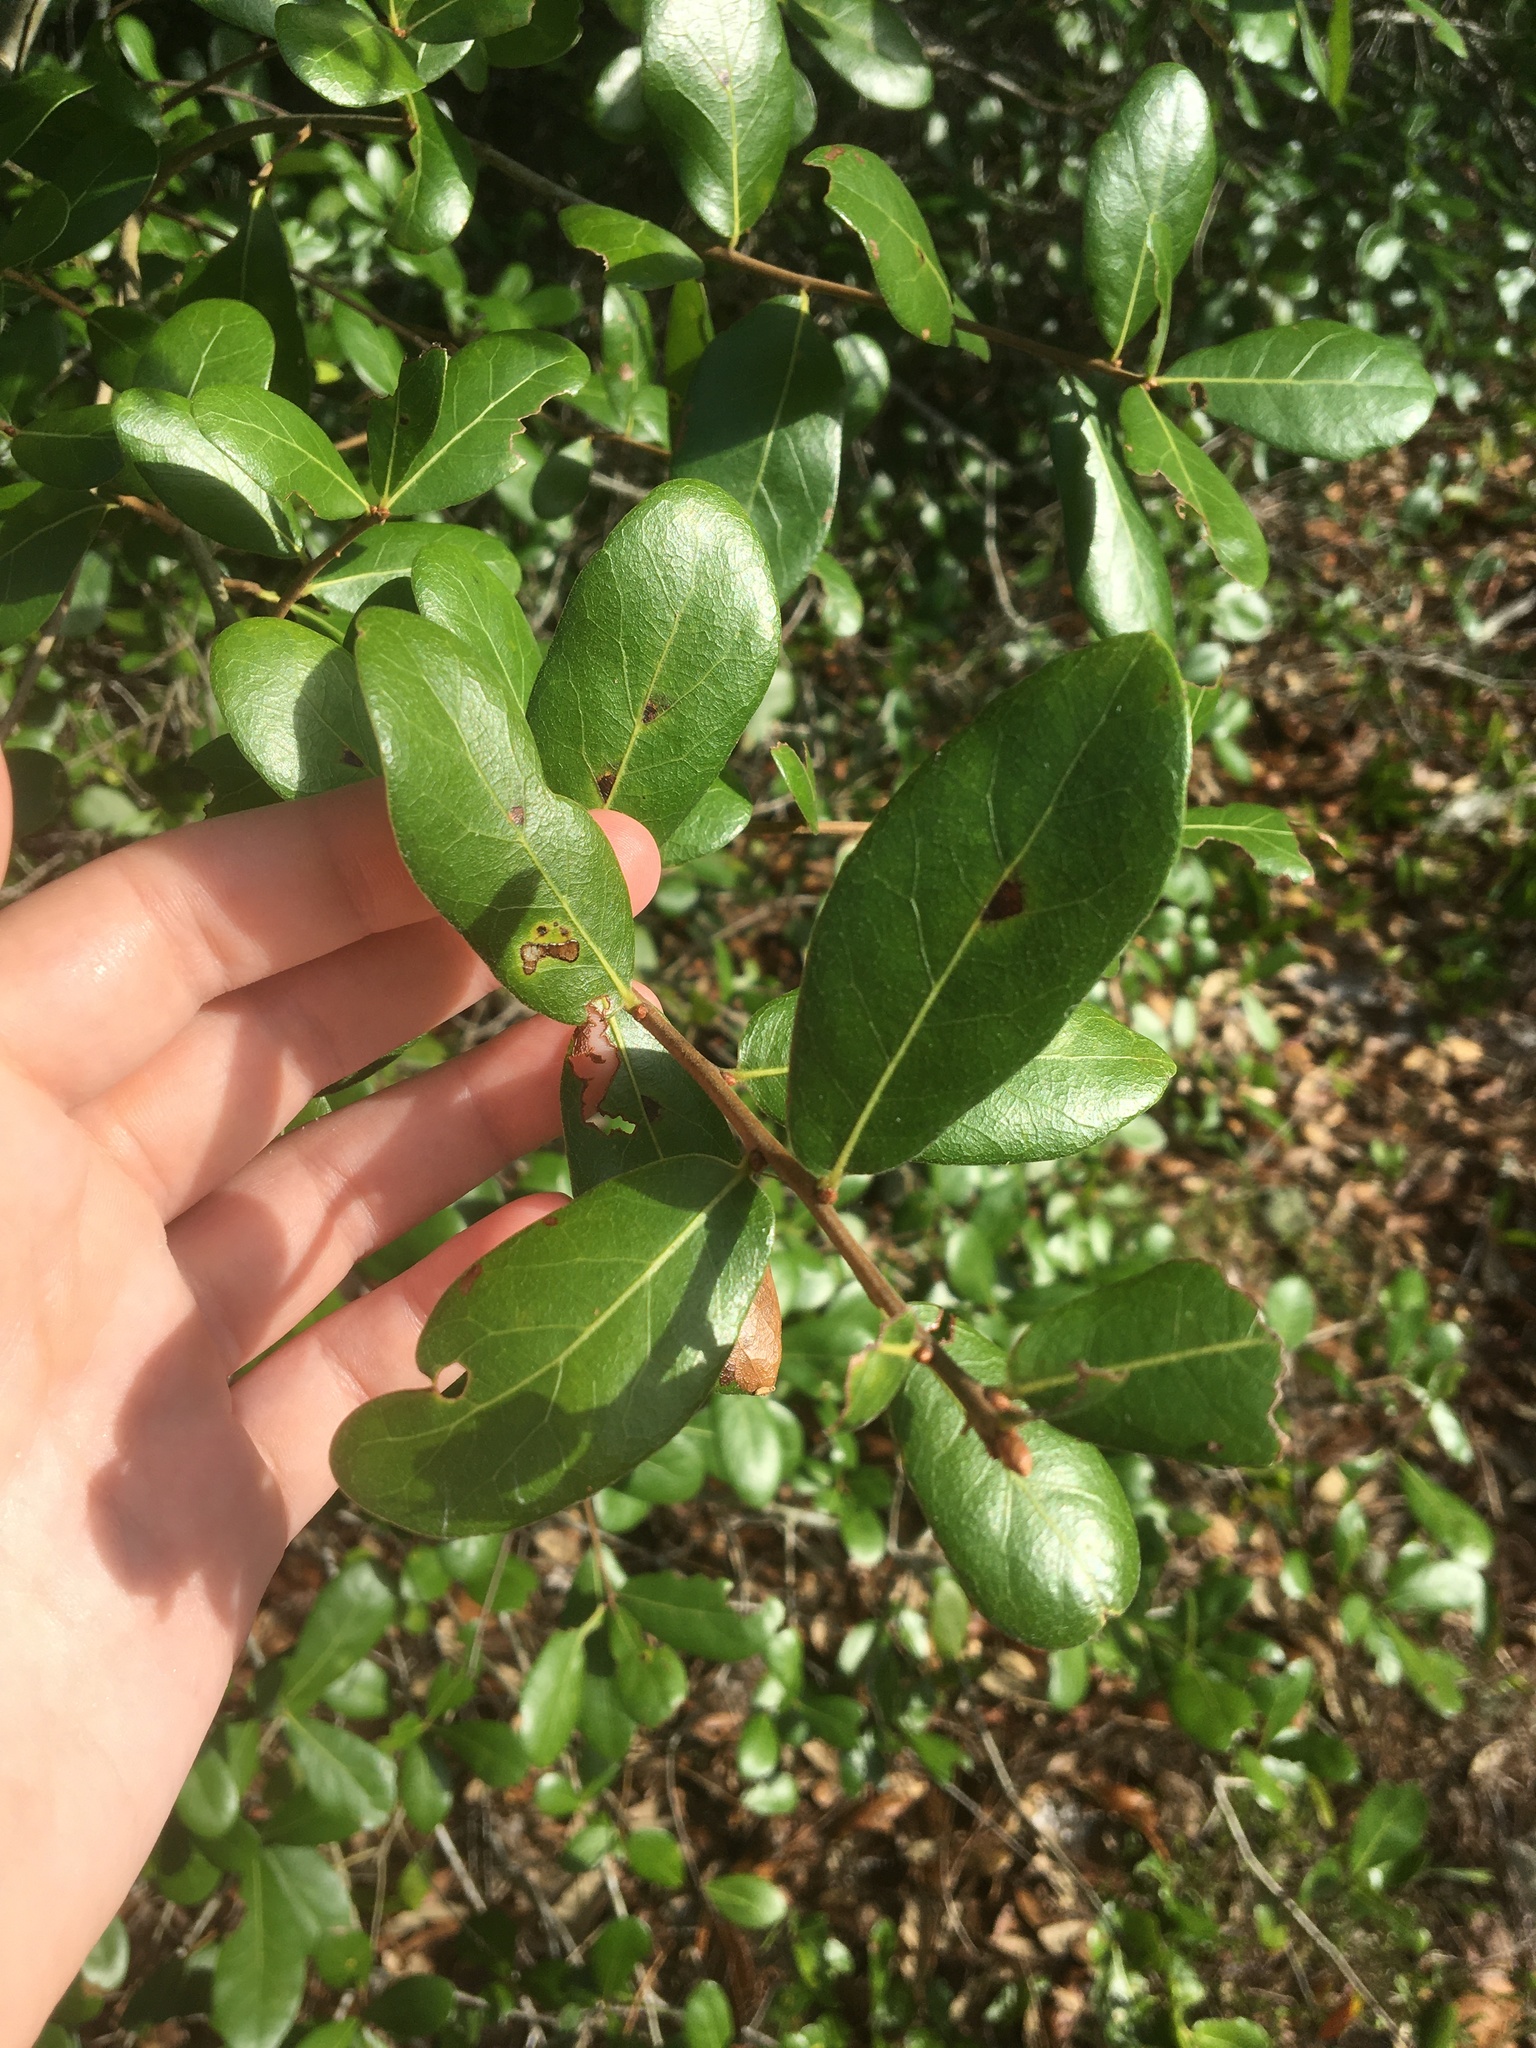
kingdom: Plantae
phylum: Tracheophyta
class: Magnoliopsida
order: Fagales
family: Fagaceae
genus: Quercus
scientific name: Quercus myrtifolia
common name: Myrtle oak
